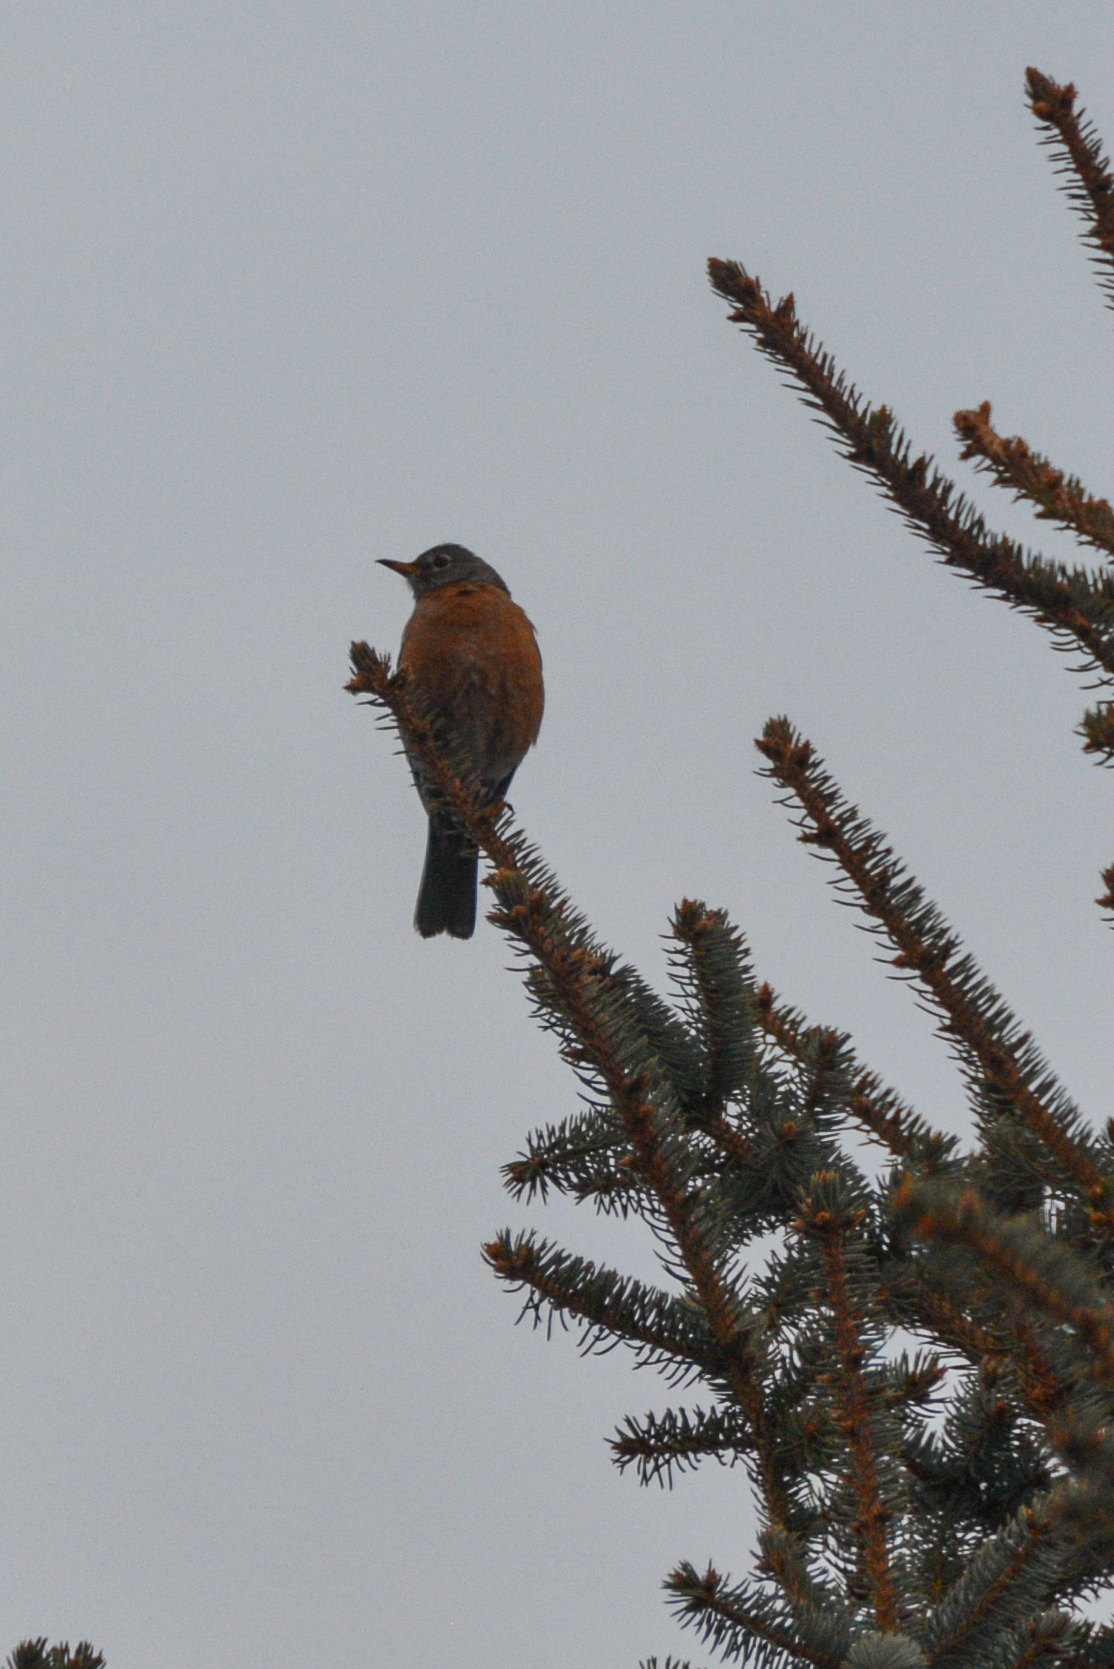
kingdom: Animalia
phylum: Chordata
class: Aves
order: Passeriformes
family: Turdidae
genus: Turdus
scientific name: Turdus migratorius
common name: American robin
